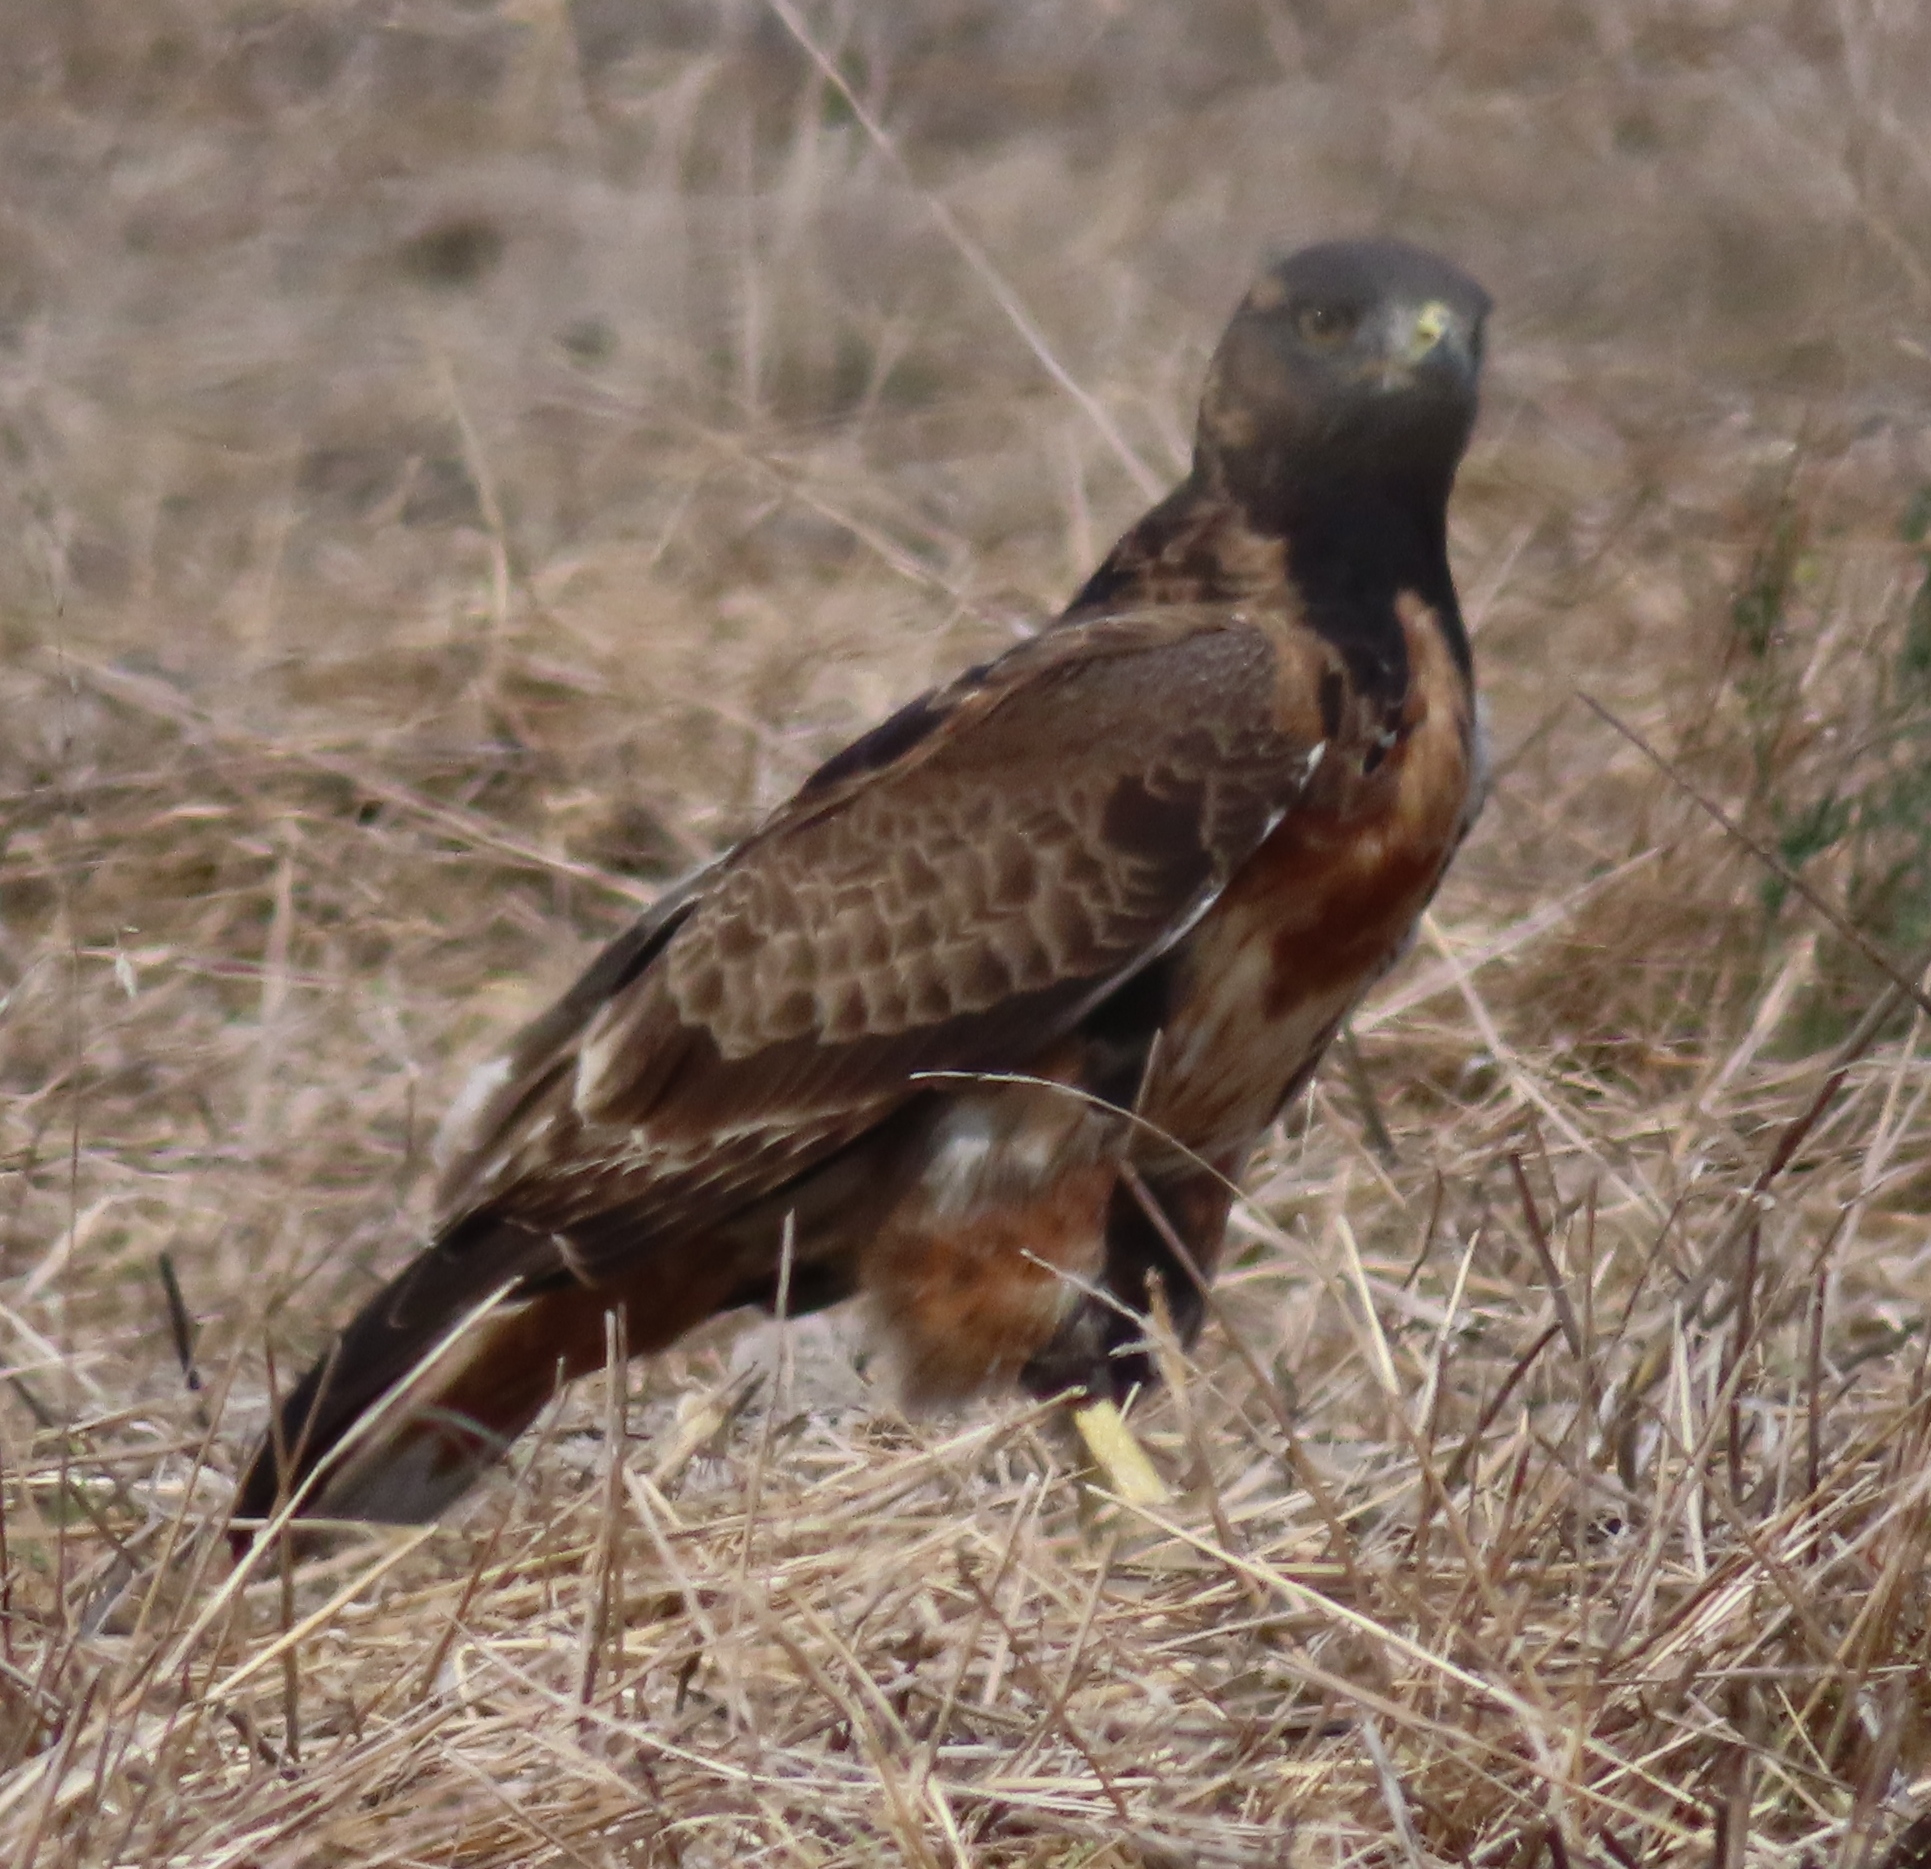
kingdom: Animalia
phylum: Chordata
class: Aves
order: Accipitriformes
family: Accipitridae
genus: Buteo
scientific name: Buteo rufofuscus
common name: Jackal buzzard
